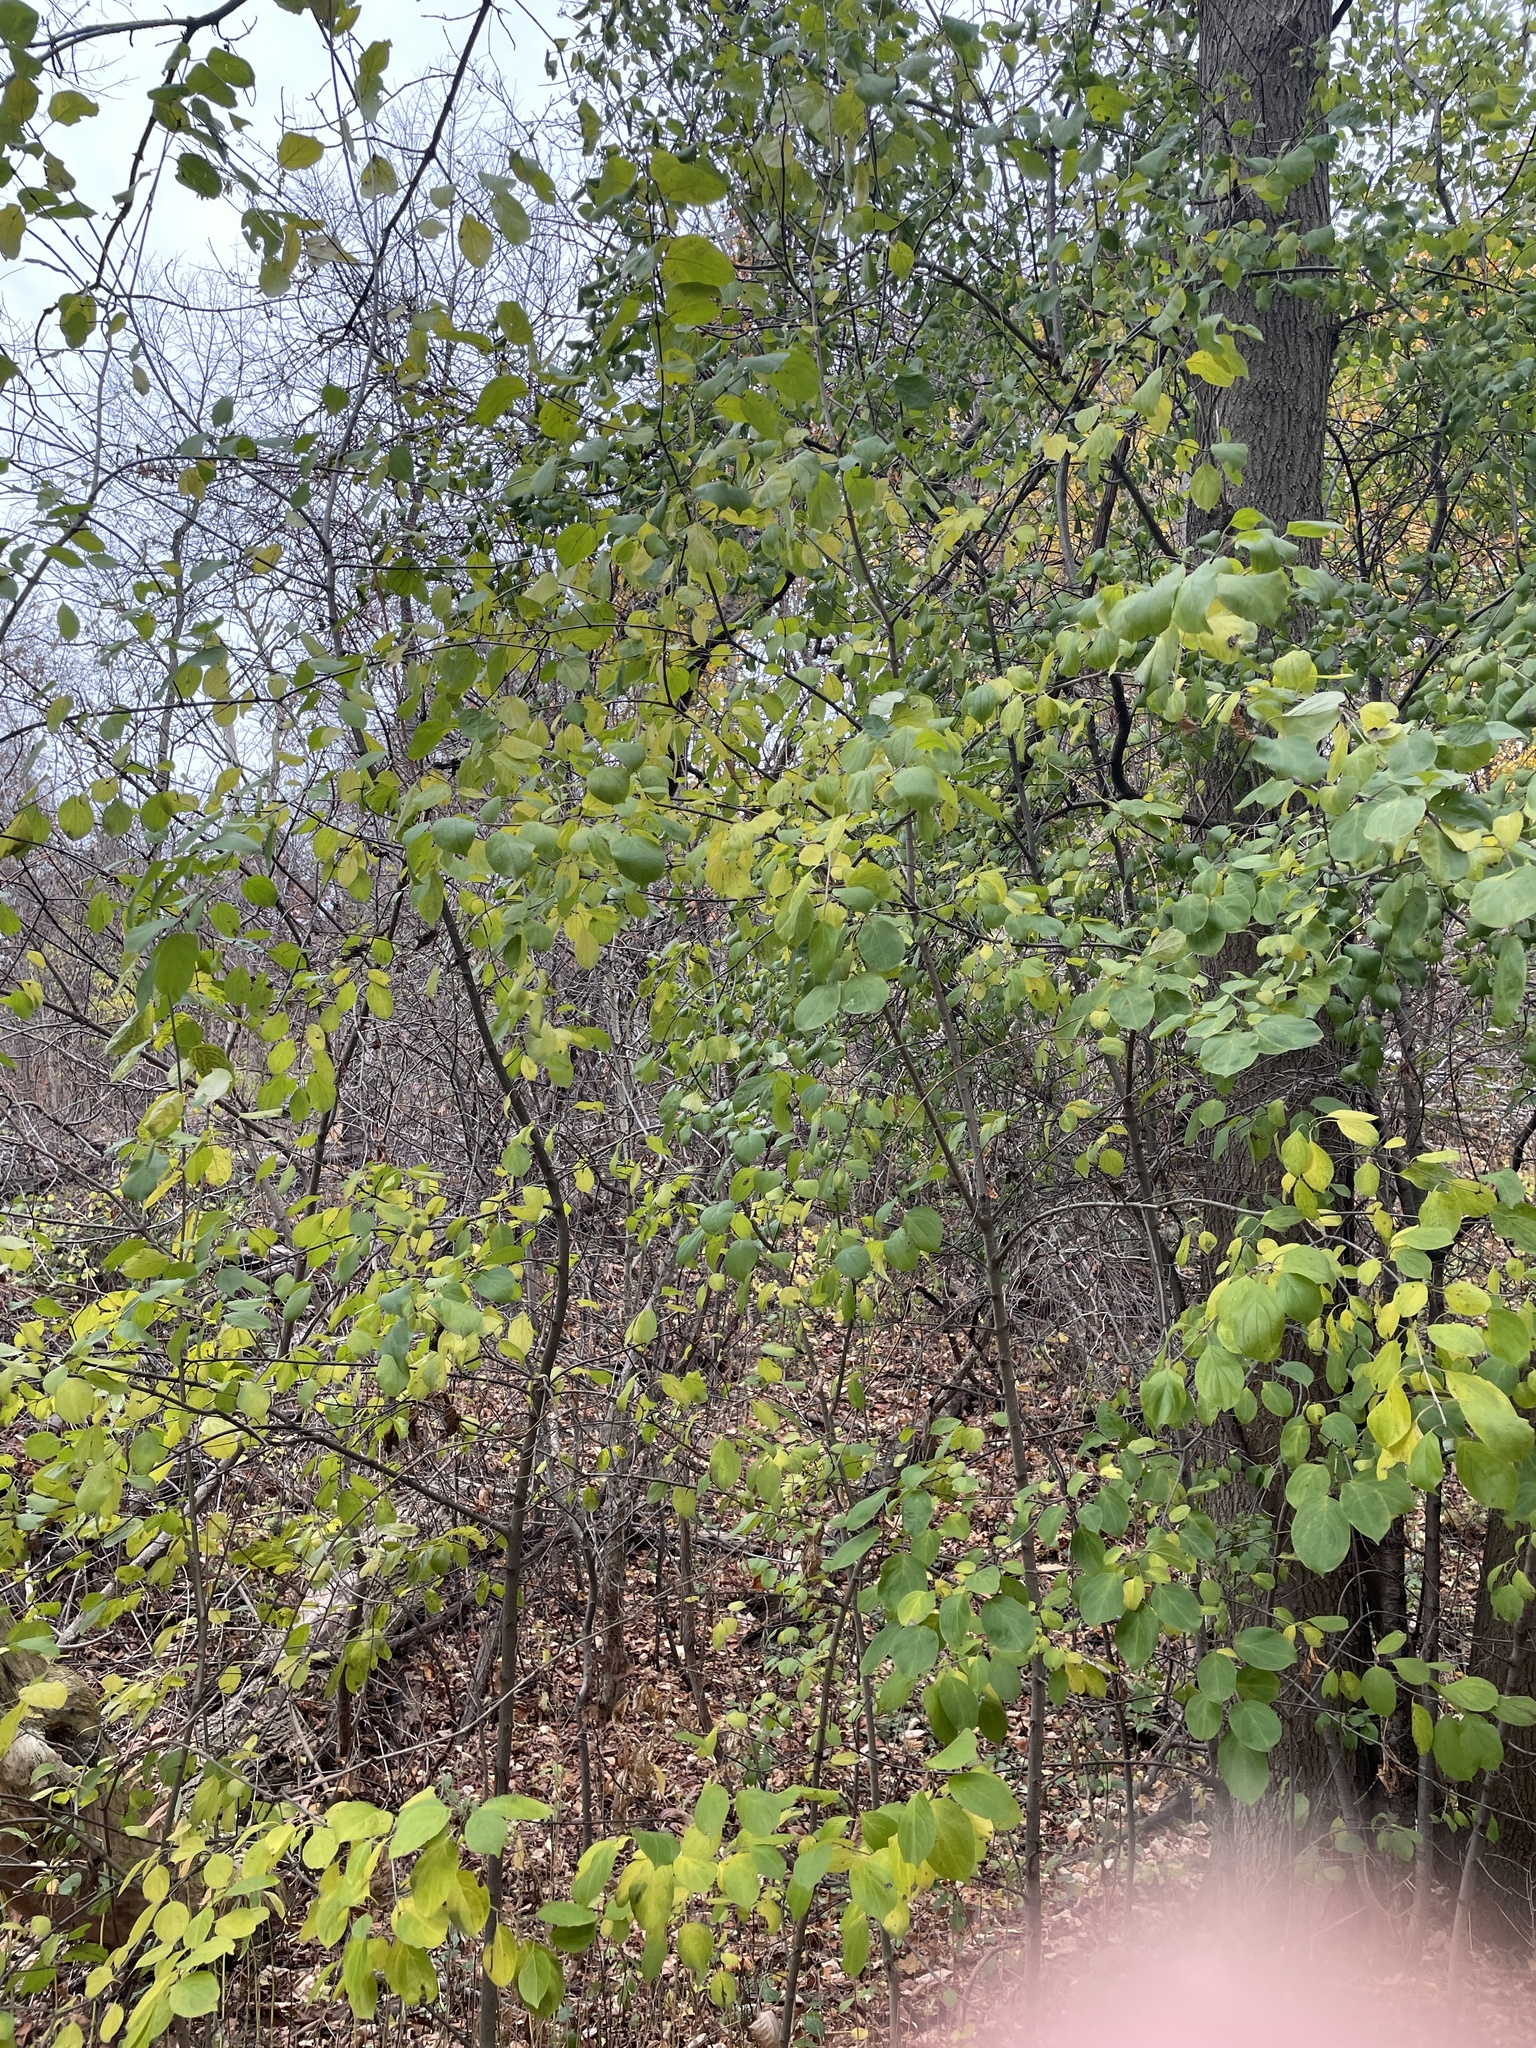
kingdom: Plantae
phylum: Tracheophyta
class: Magnoliopsida
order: Rosales
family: Rhamnaceae
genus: Rhamnus
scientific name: Rhamnus cathartica
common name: Common buckthorn
